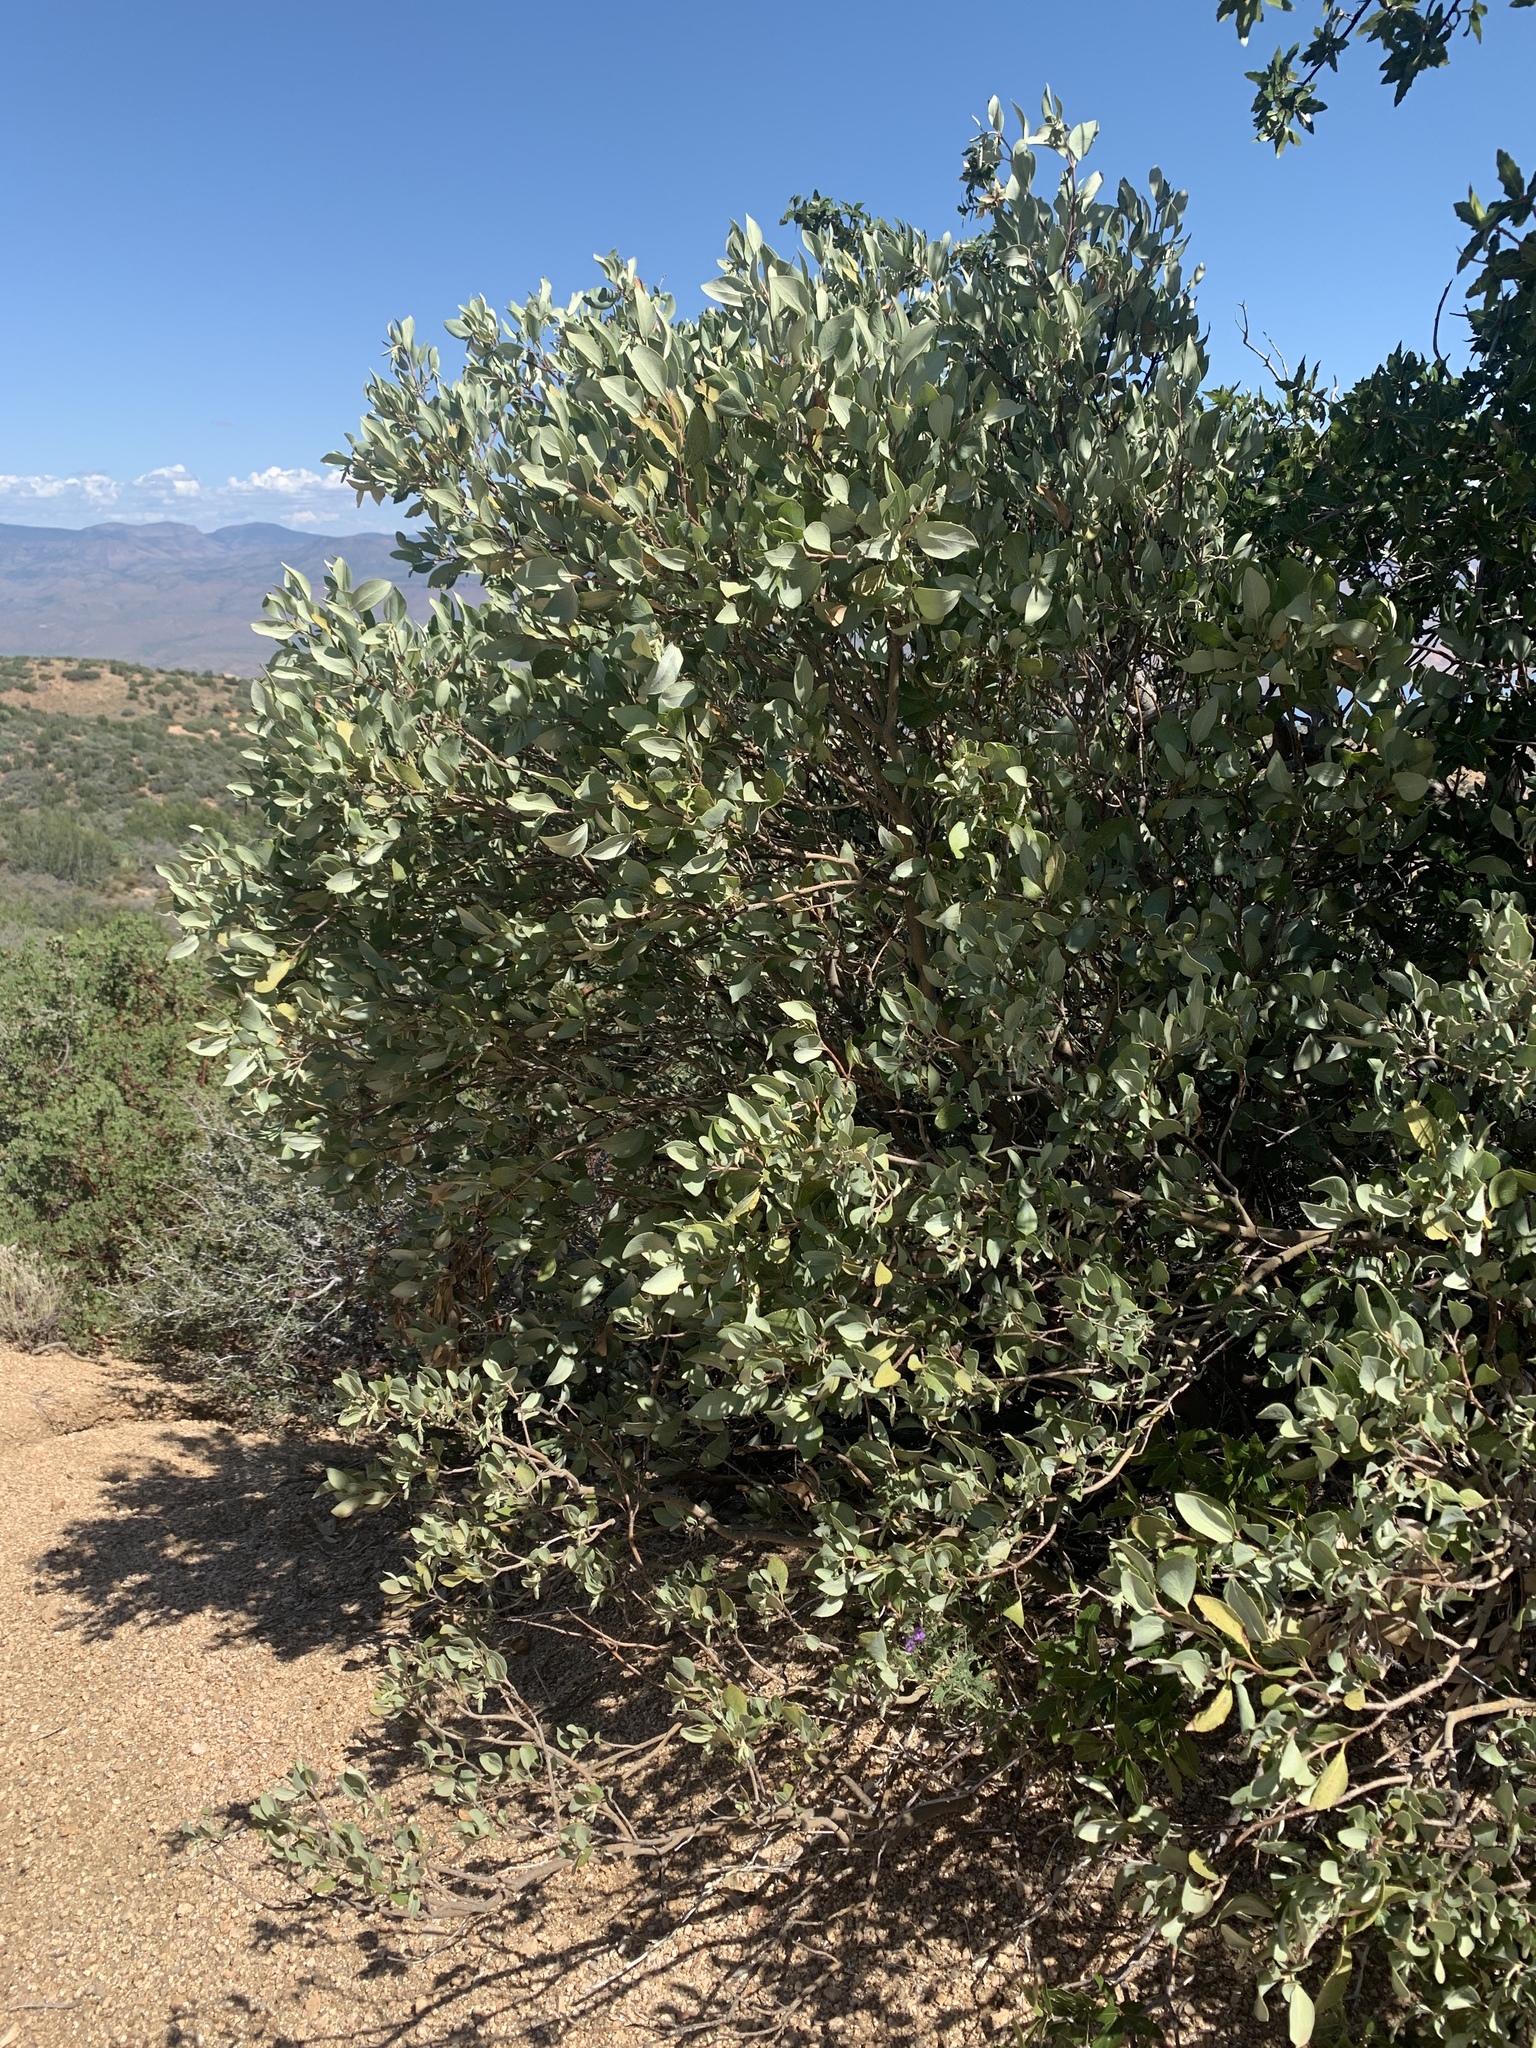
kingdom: Plantae
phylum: Tracheophyta
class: Magnoliopsida
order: Garryales
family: Garryaceae
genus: Garrya
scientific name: Garrya wrightii
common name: Wright's silktassel
